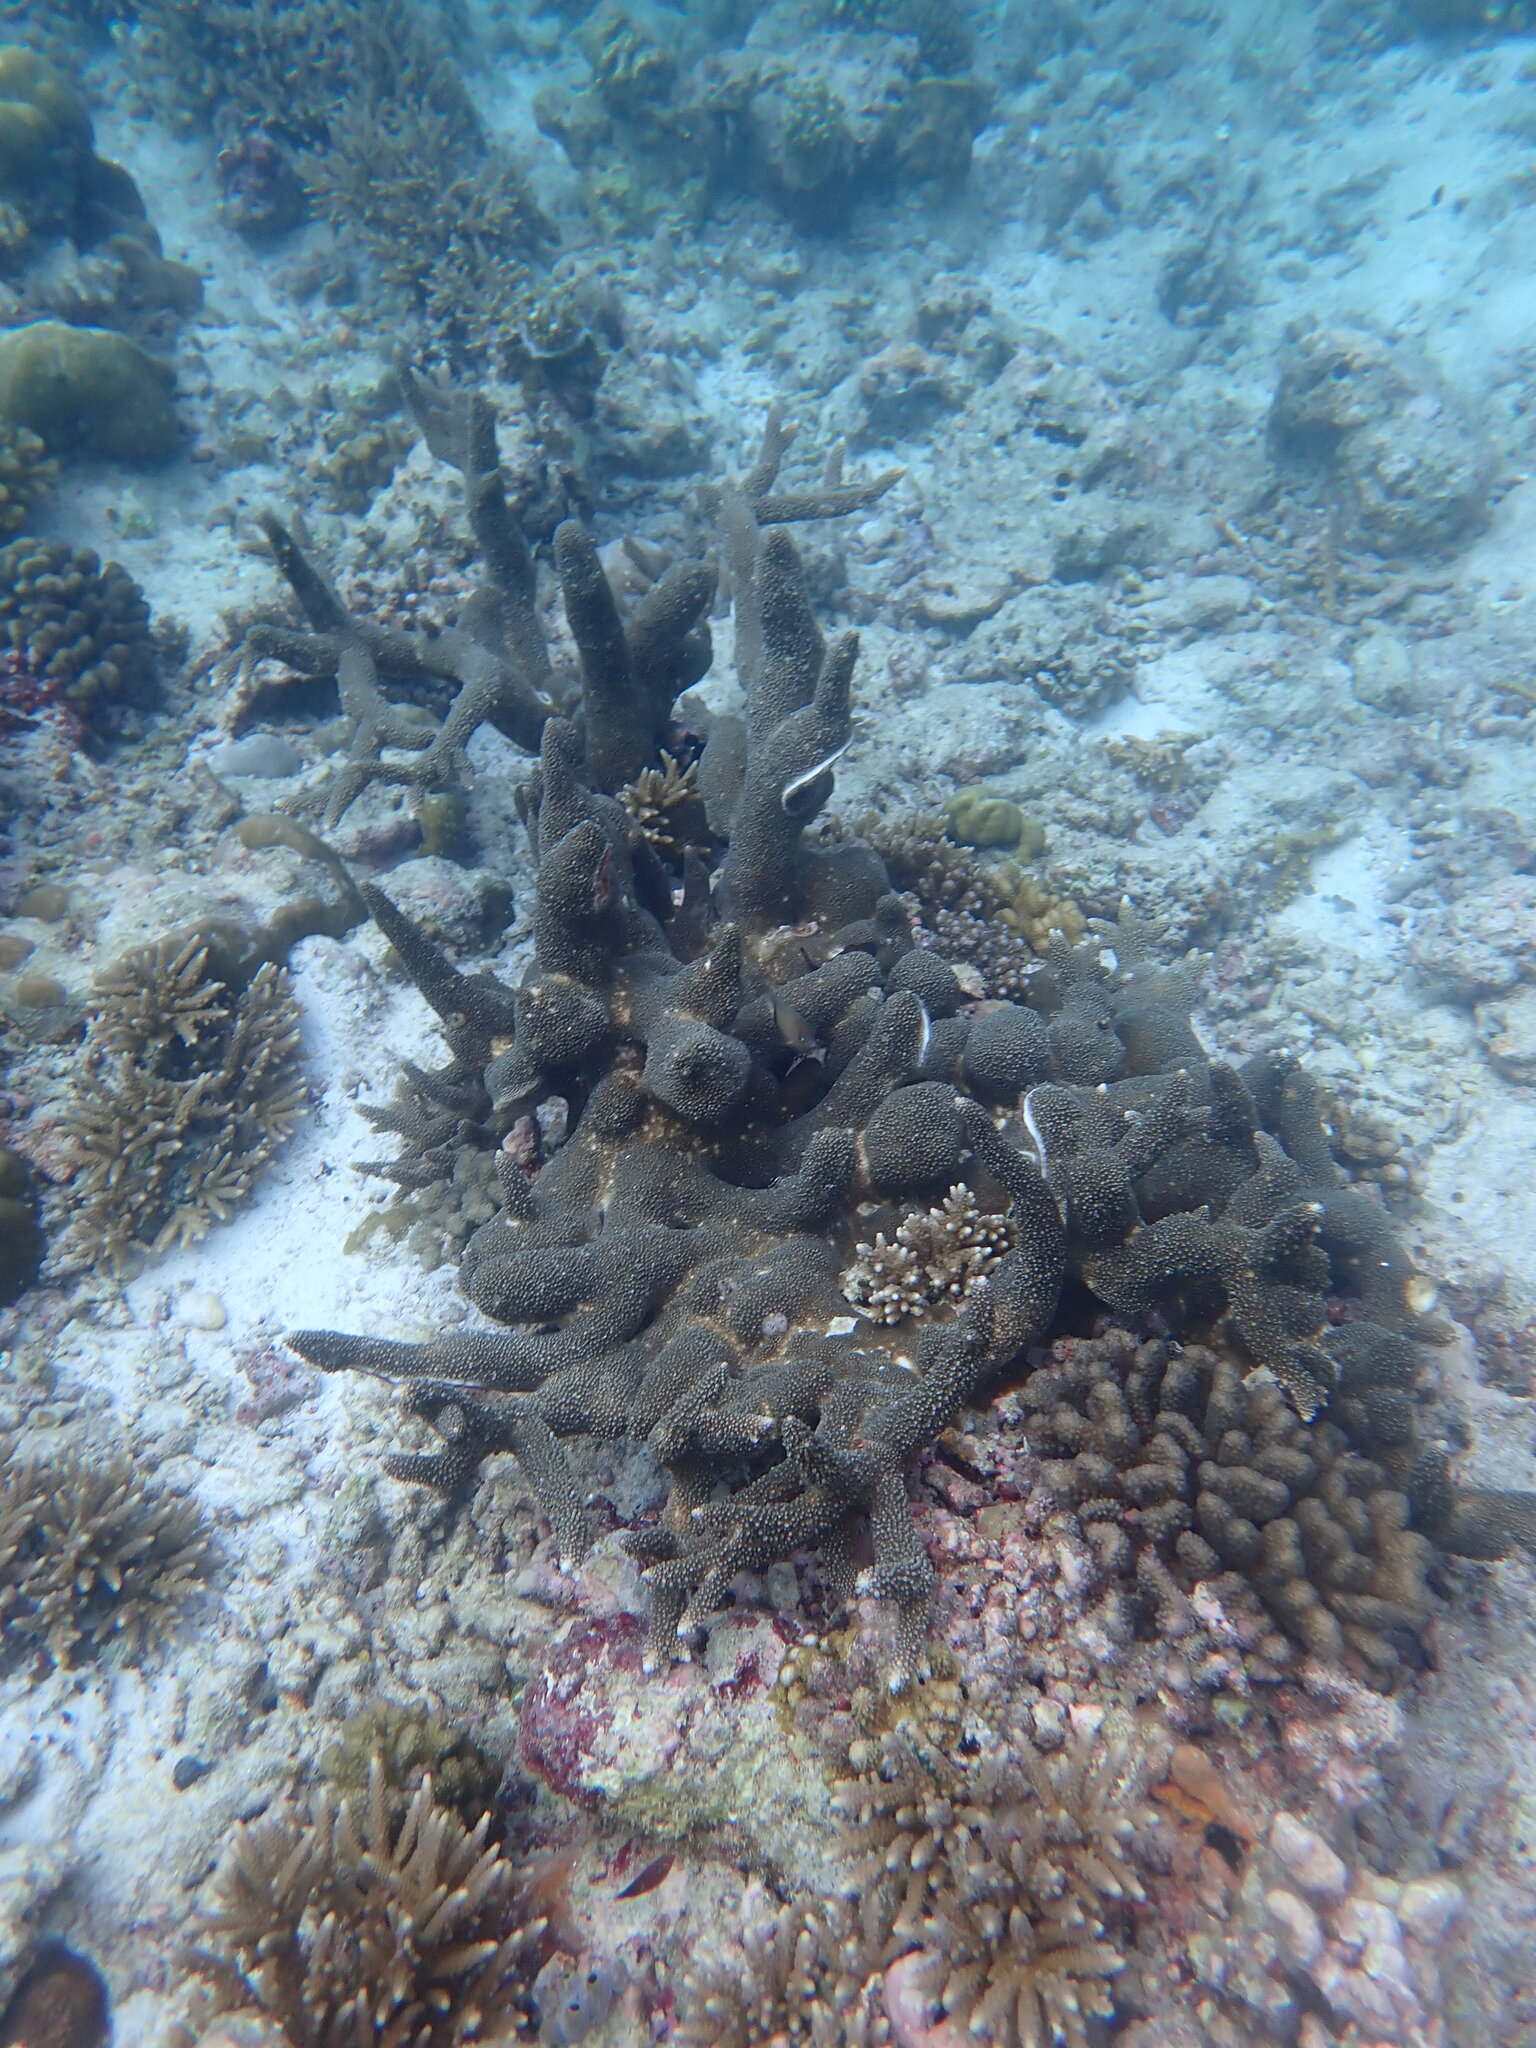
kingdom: Animalia
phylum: Cnidaria
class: Anthozoa
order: Scleractinia
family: Acroporidae
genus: Acropora
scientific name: Acropora robusta
